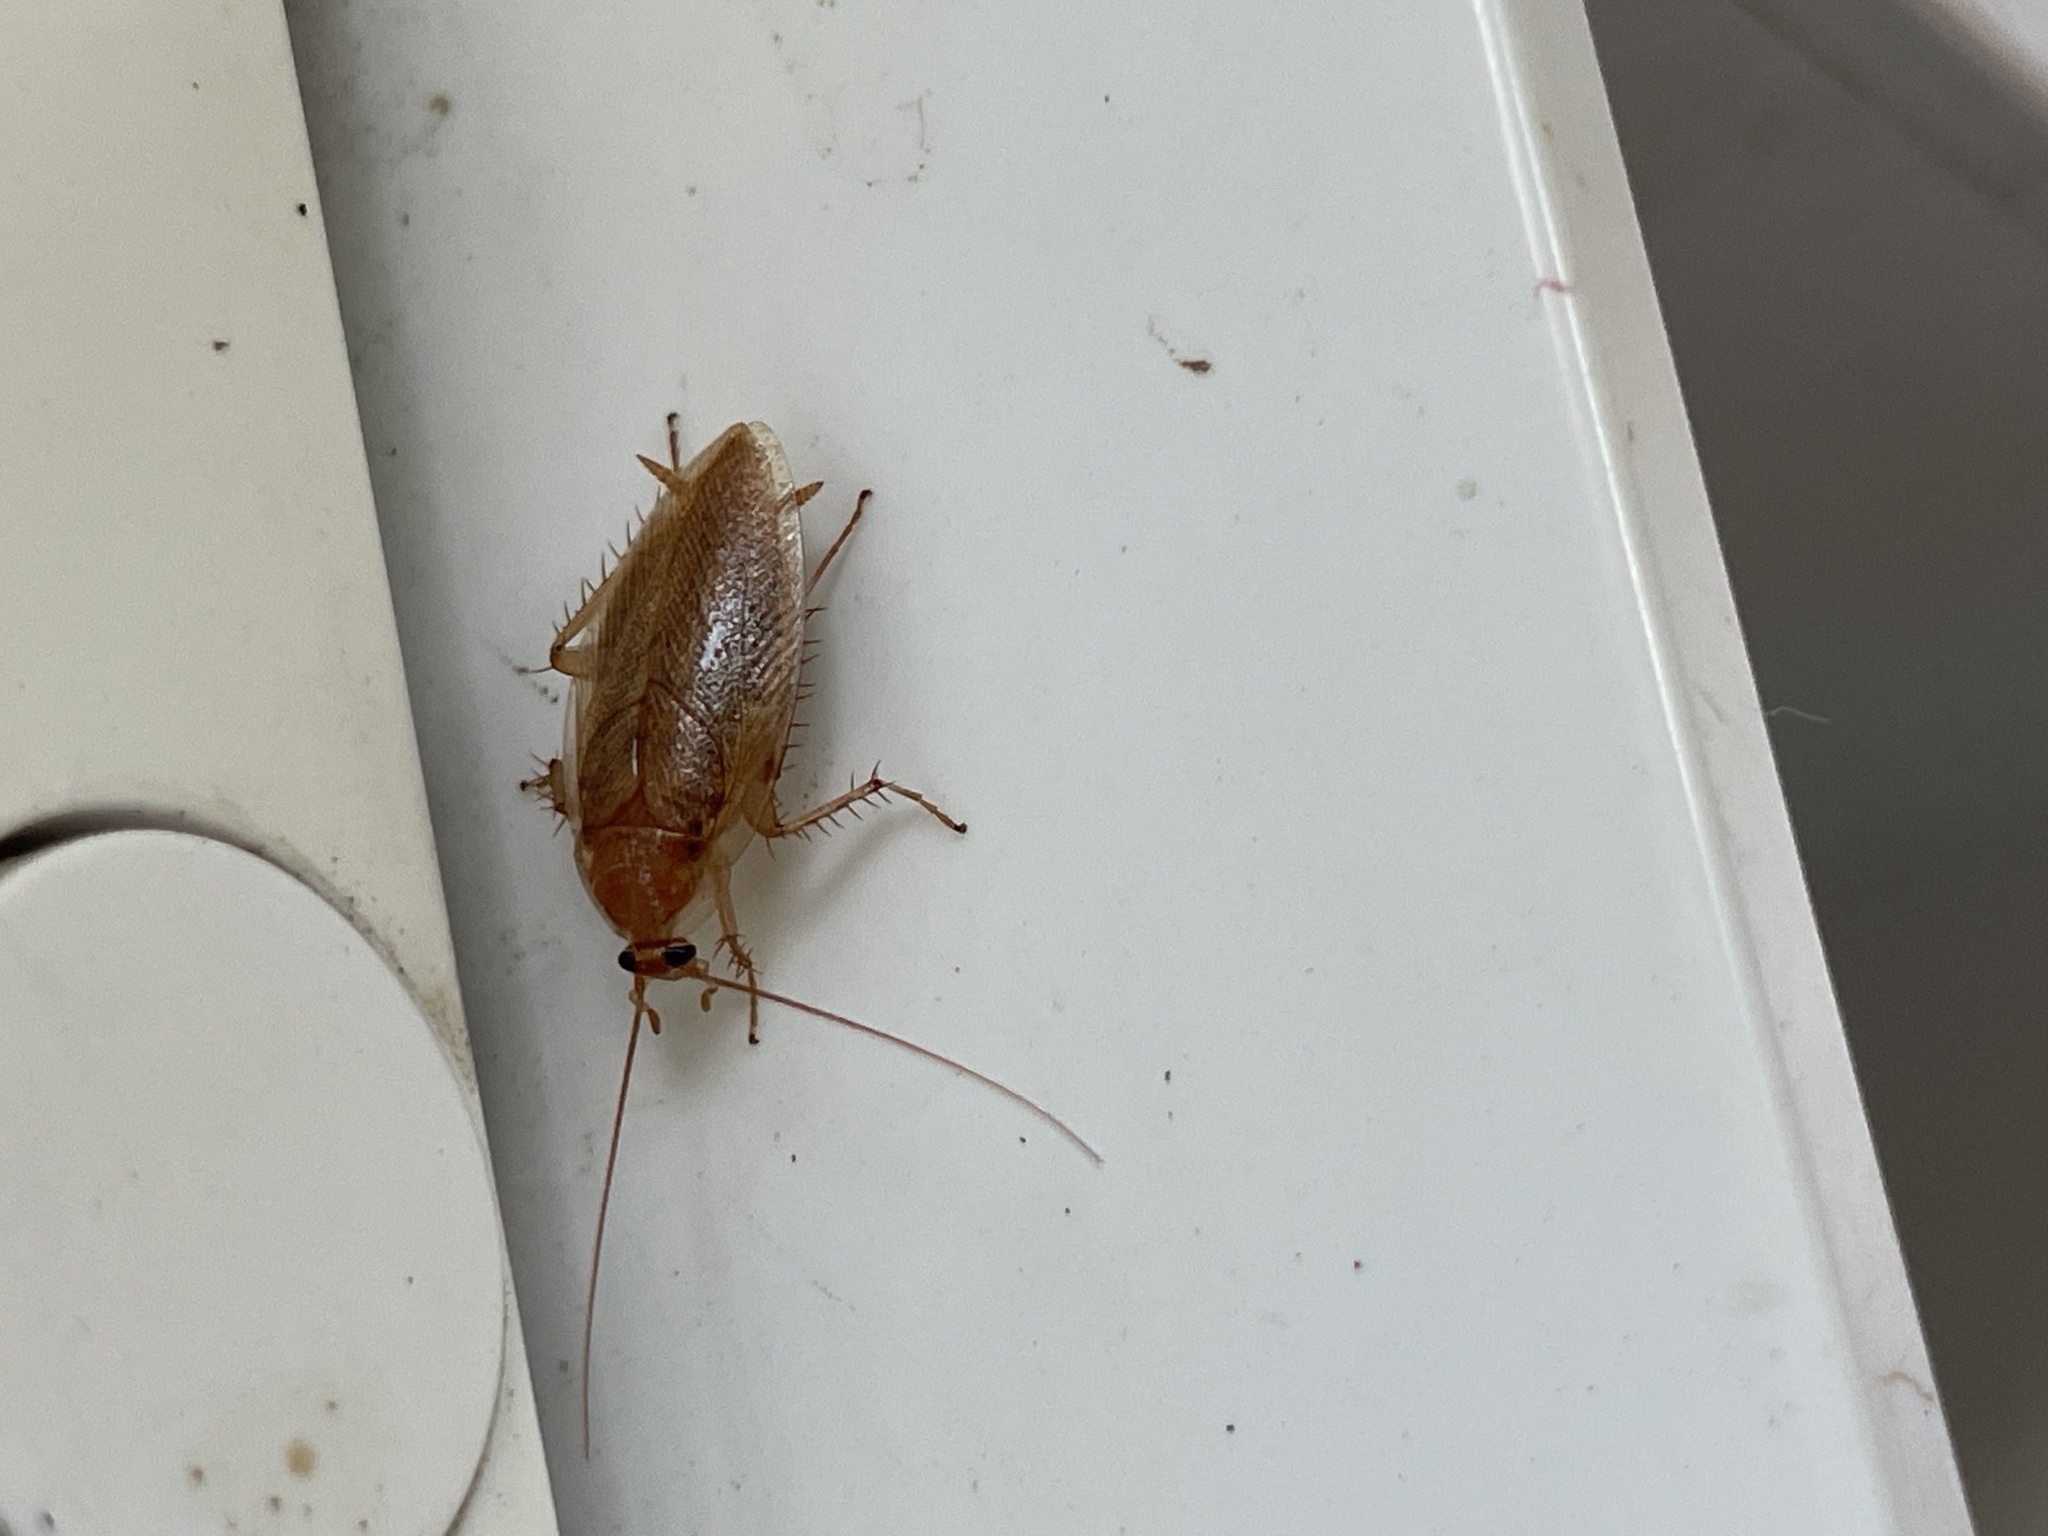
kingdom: Animalia
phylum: Arthropoda
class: Insecta
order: Blattodea
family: Ectobiidae
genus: Ectobius
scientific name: Ectobius vittiventris
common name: Garden cockroach
